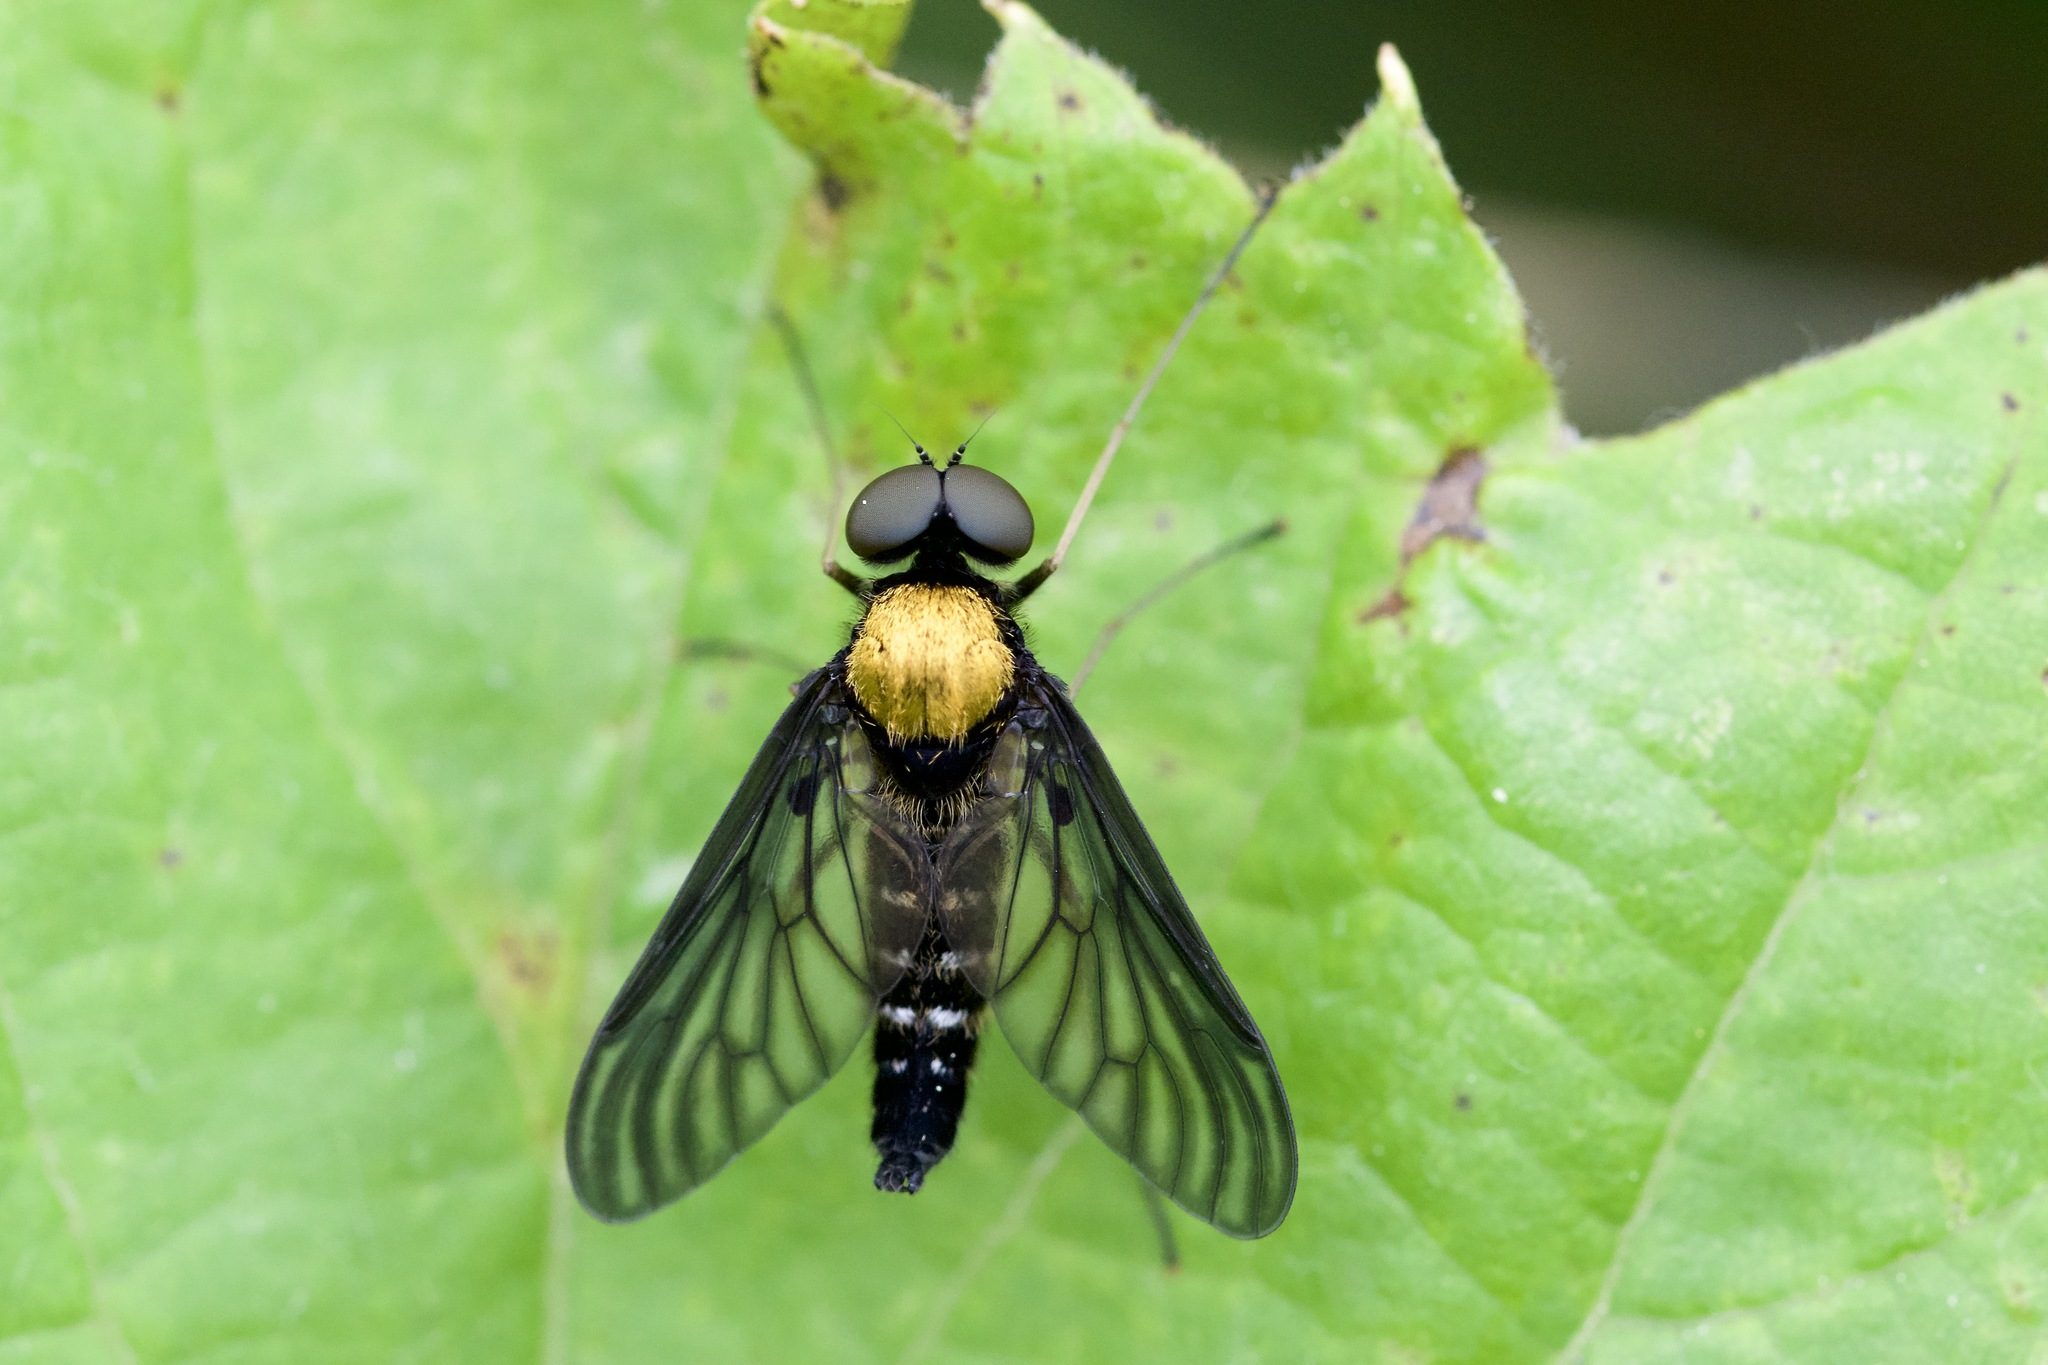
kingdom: Animalia
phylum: Arthropoda
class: Insecta
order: Diptera
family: Rhagionidae
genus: Chrysopilus
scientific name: Chrysopilus thoracicus
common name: Golden-backed snipe fly
